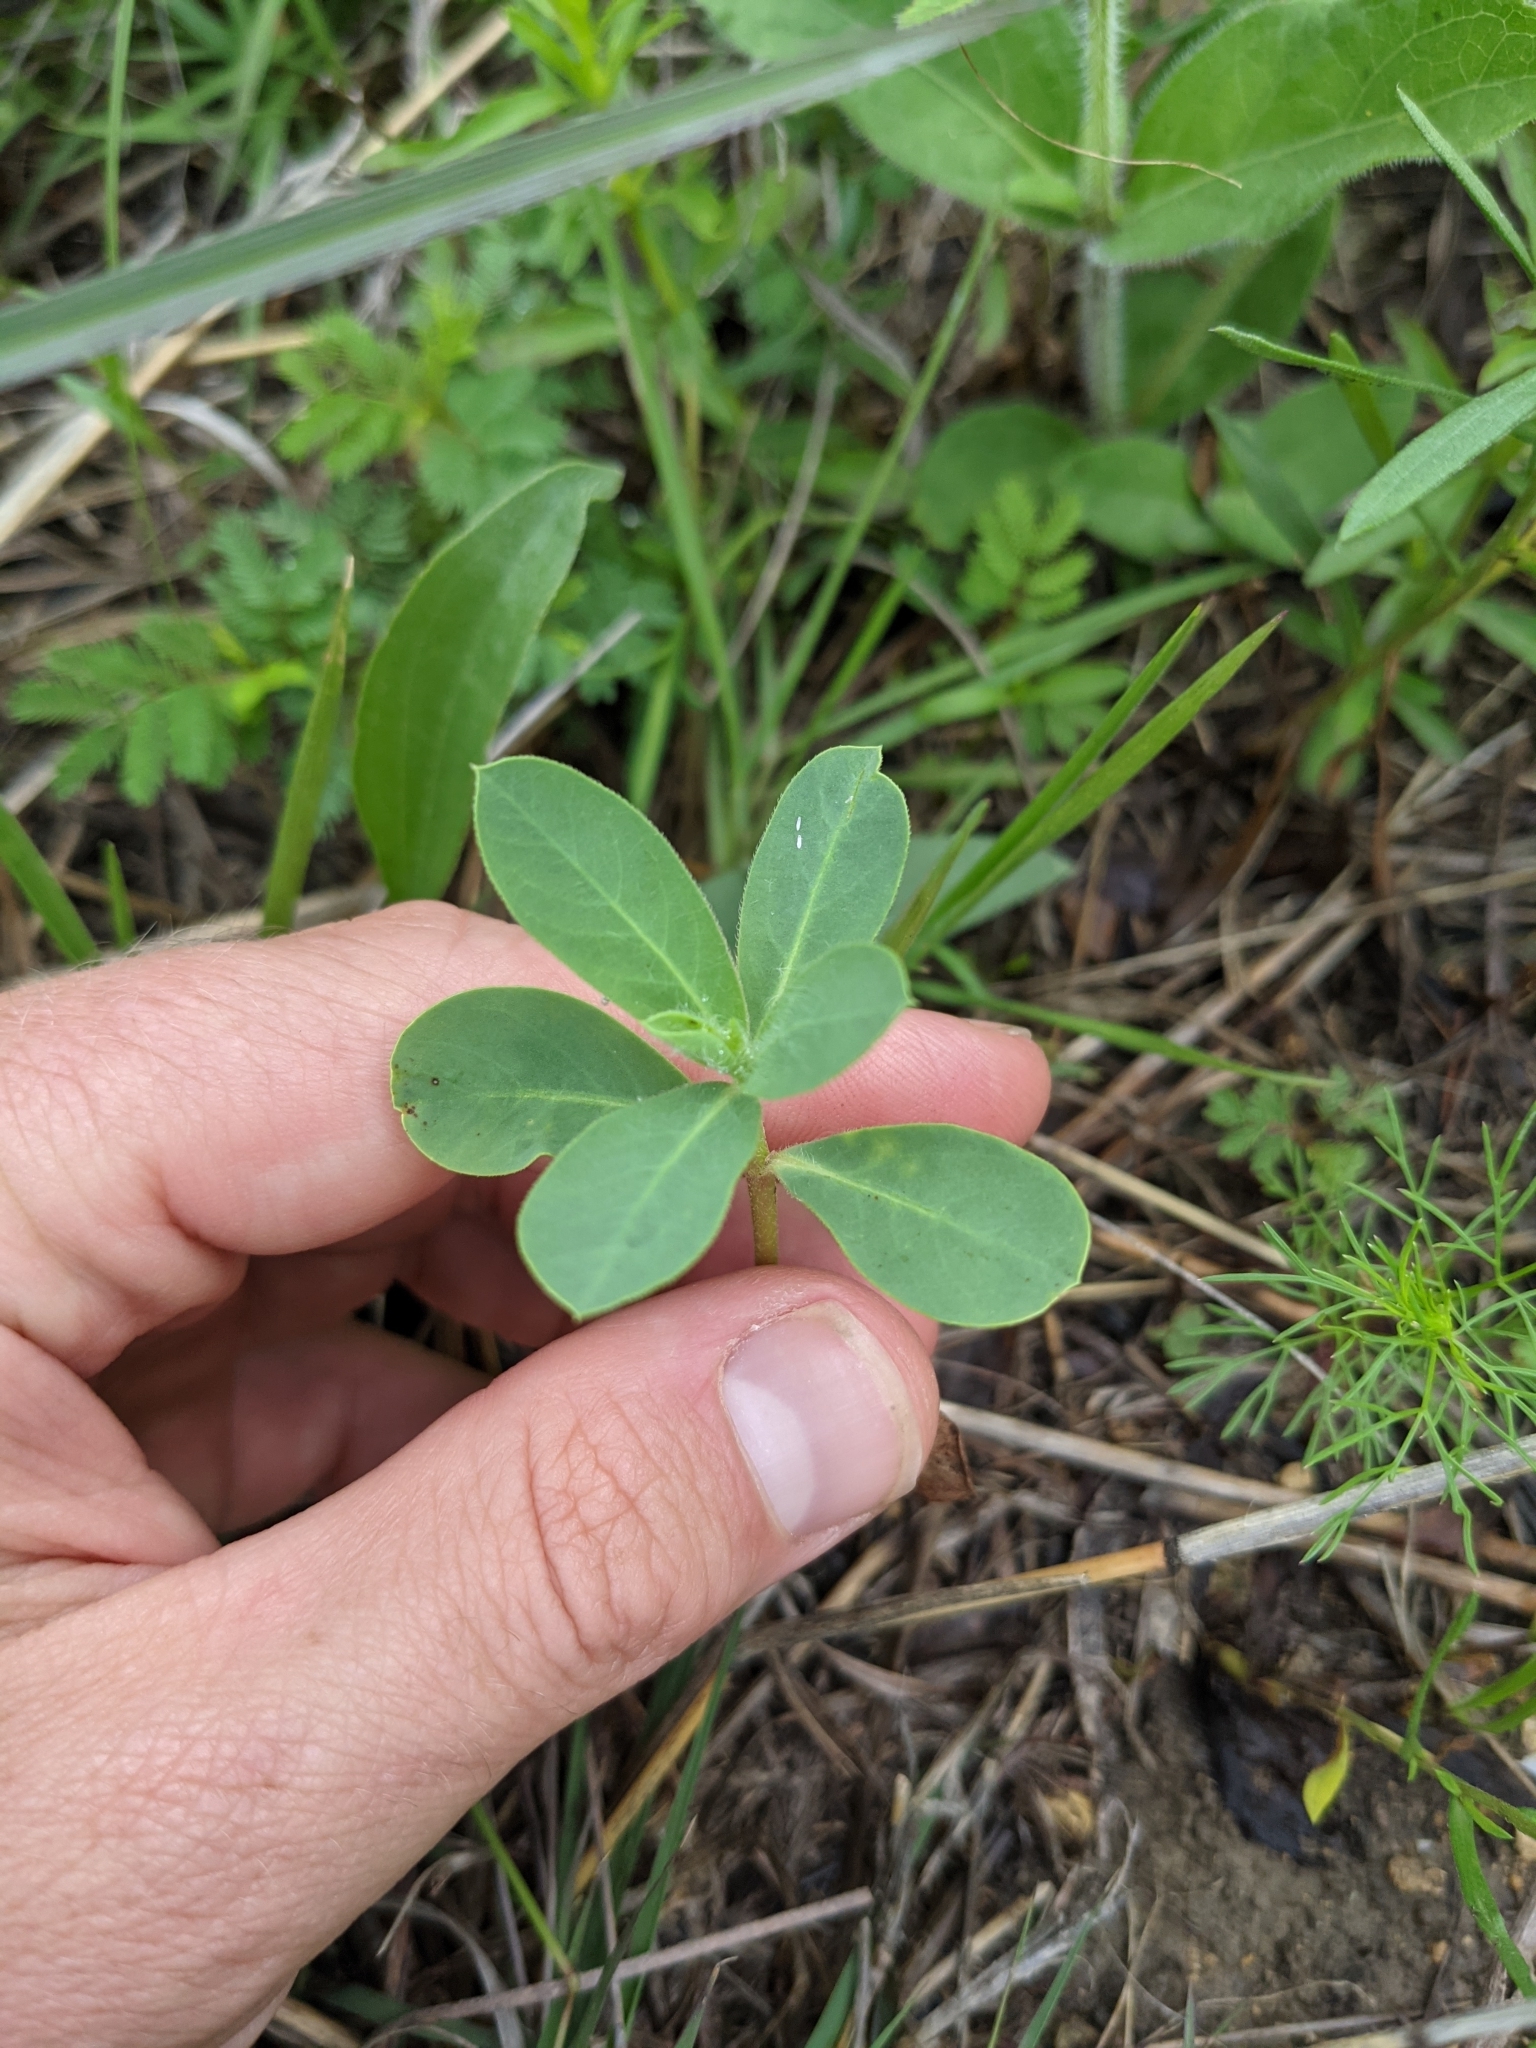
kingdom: Plantae
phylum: Tracheophyta
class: Magnoliopsida
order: Malpighiales
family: Euphorbiaceae
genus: Euphorbia
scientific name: Euphorbia bicolor
